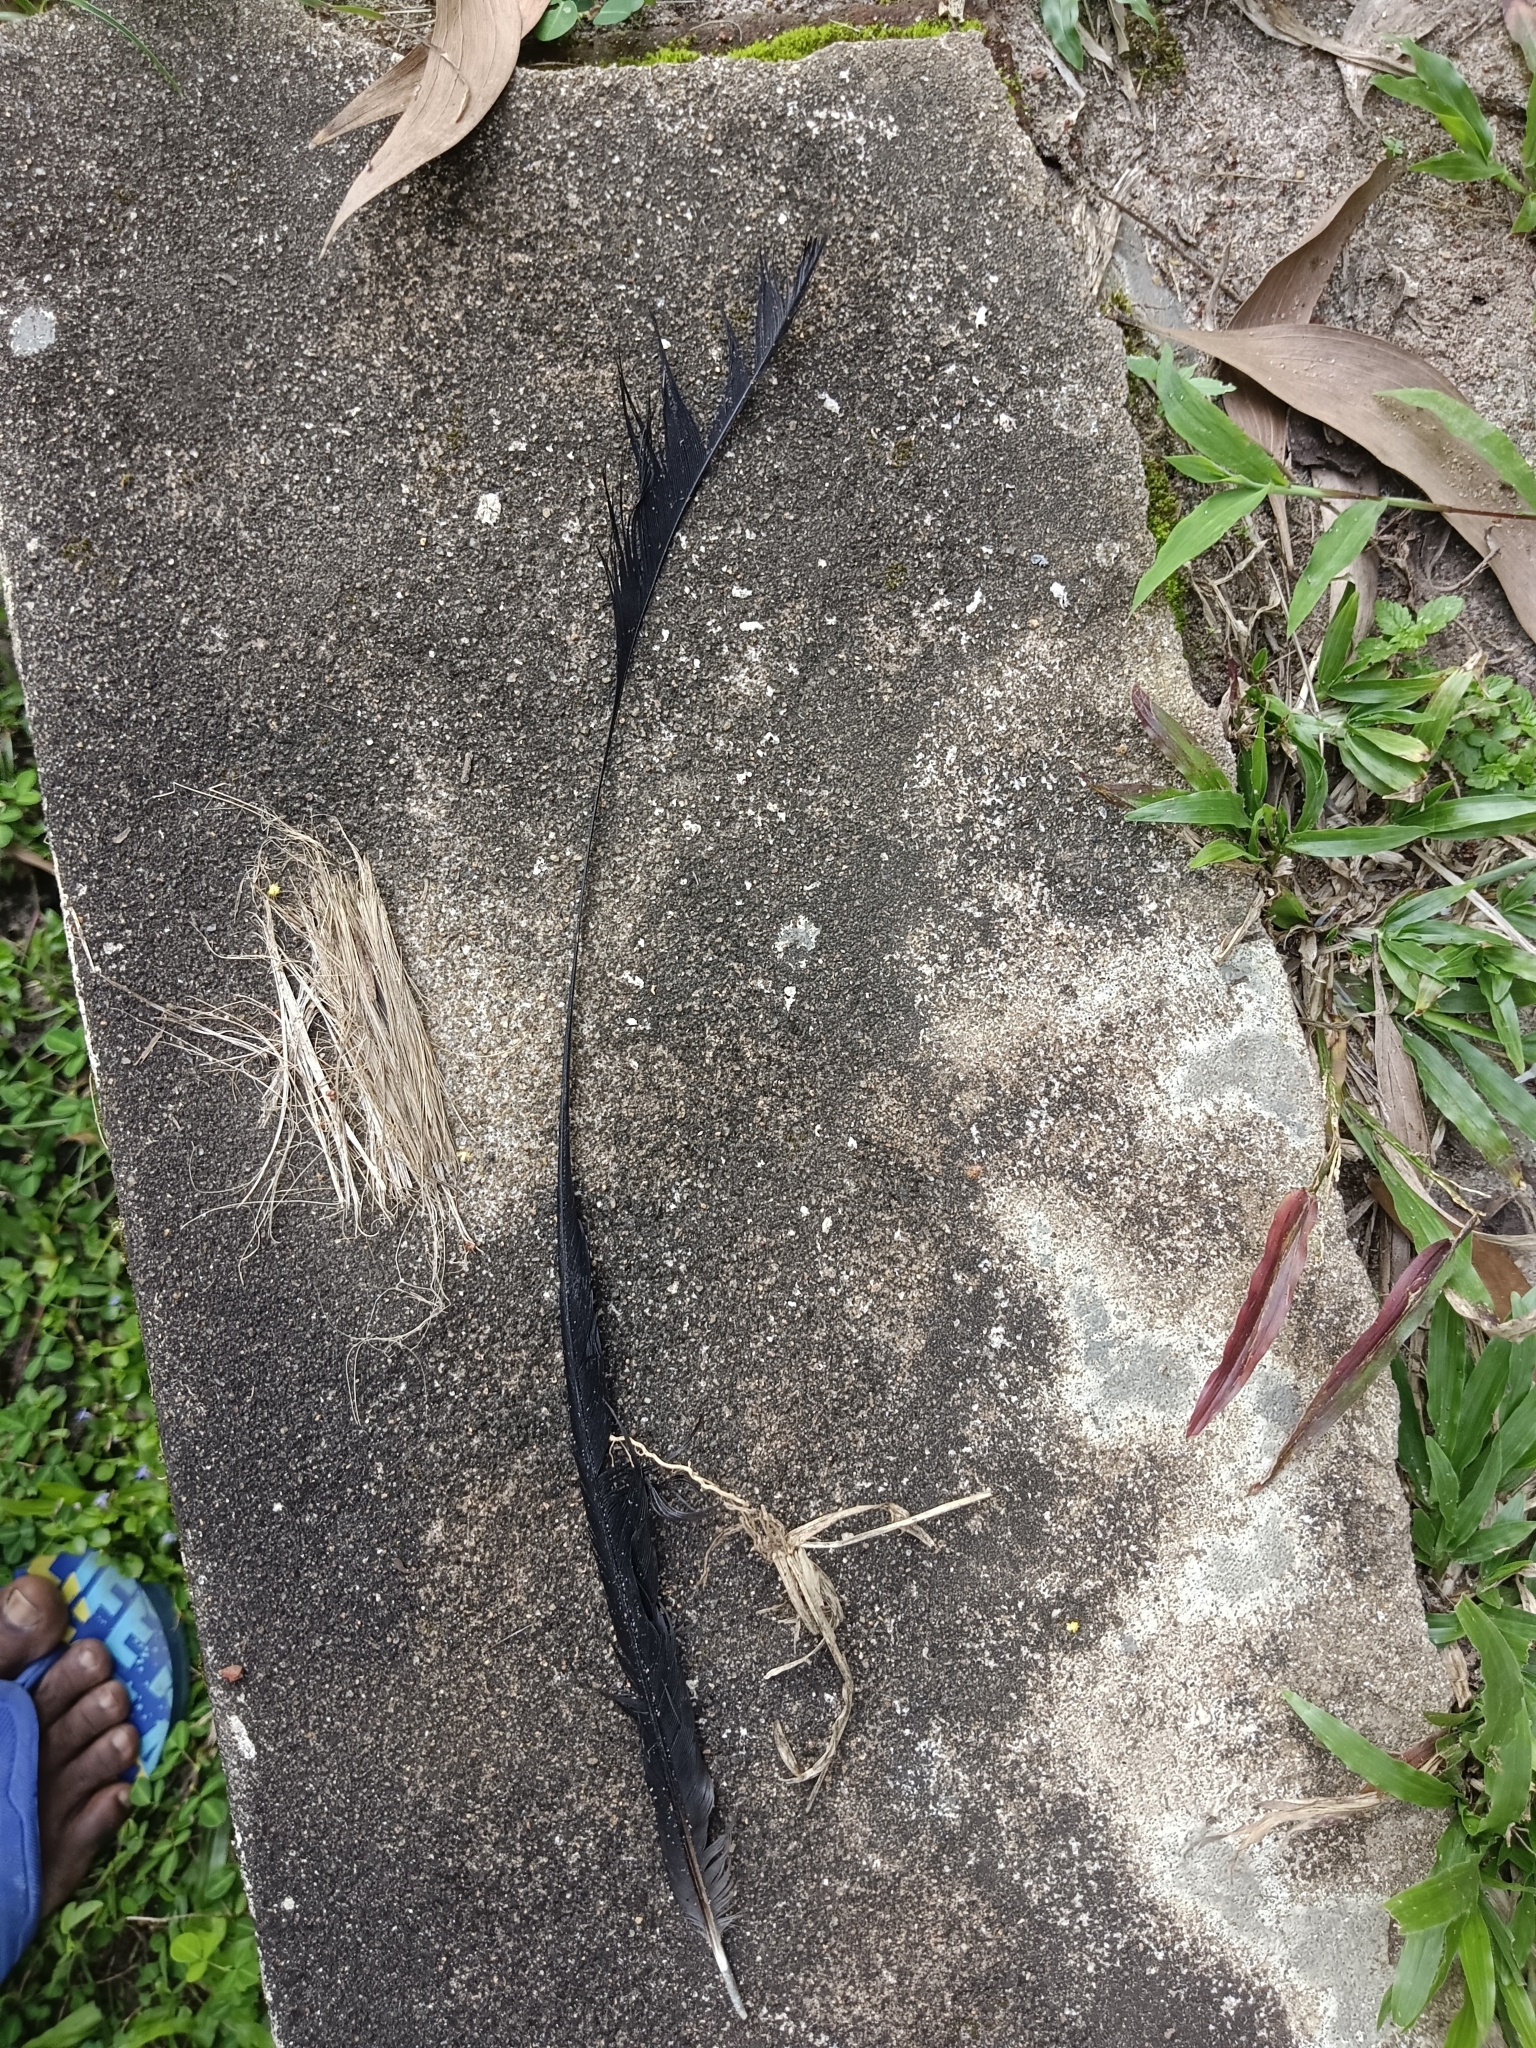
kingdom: Animalia
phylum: Chordata
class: Aves
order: Passeriformes
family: Dicruridae
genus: Dicrurus
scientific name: Dicrurus paradiseus
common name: Greater racket-tailed drongo
